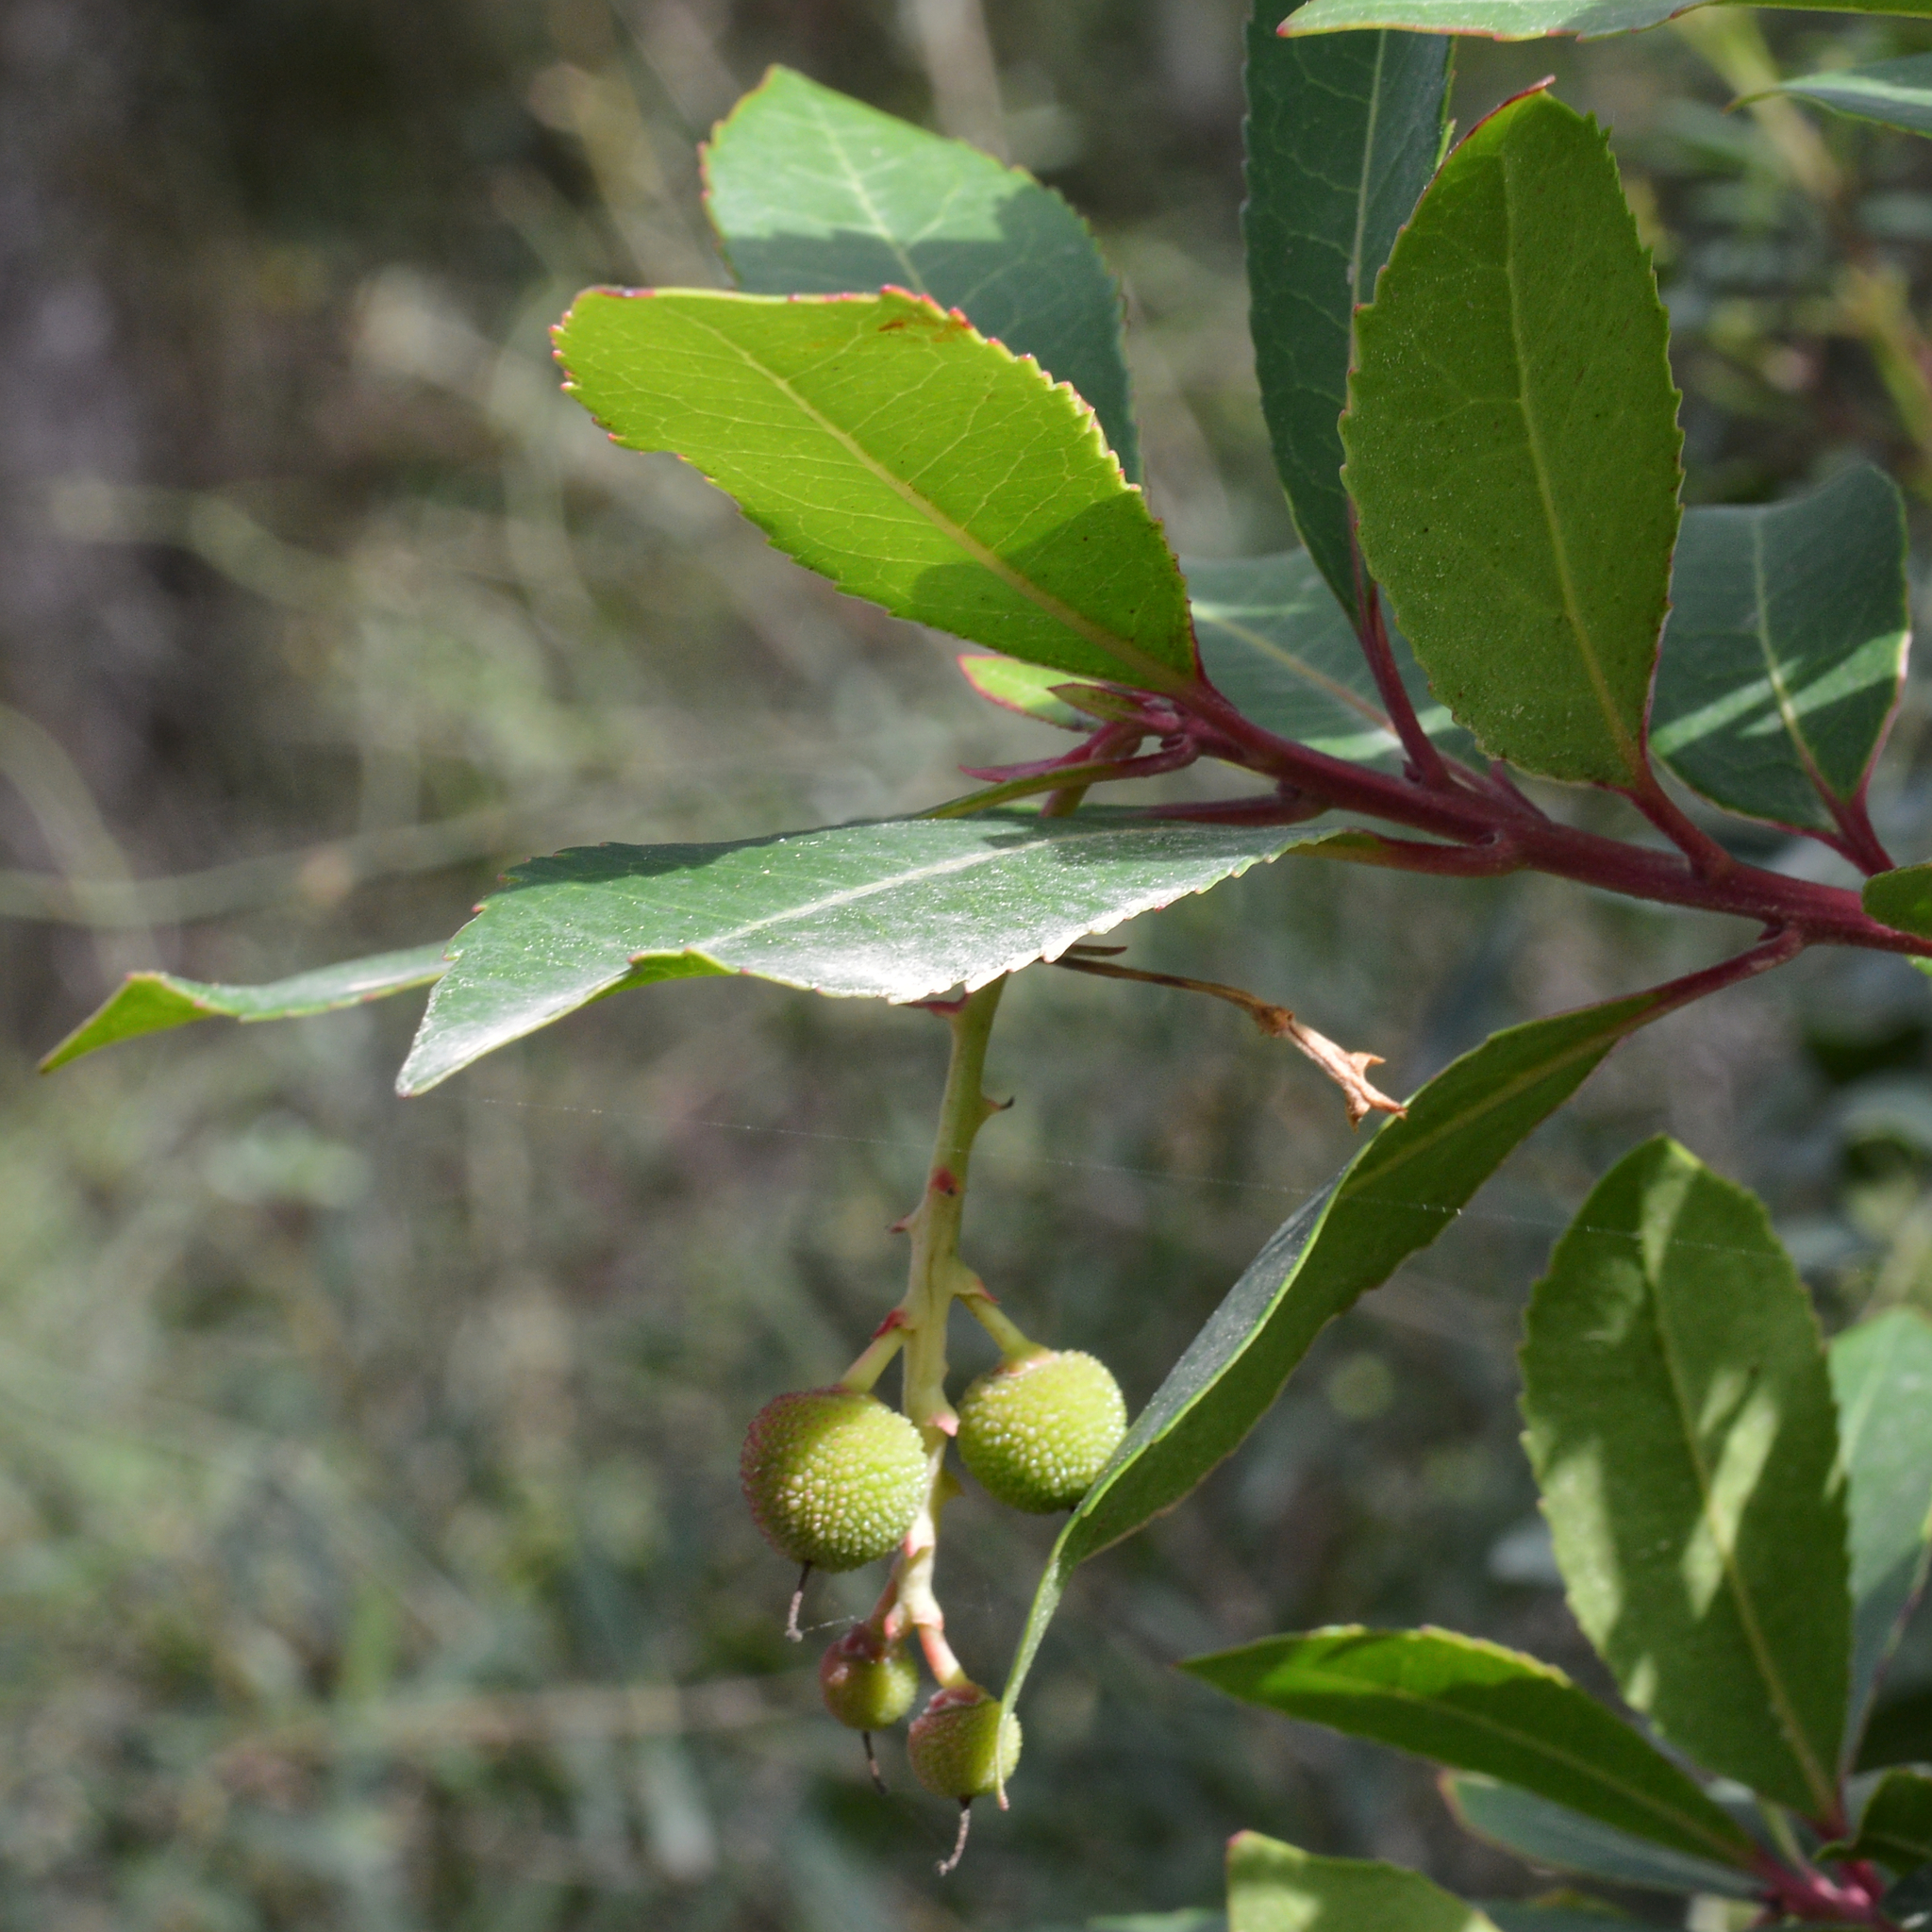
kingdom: Plantae
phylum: Tracheophyta
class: Magnoliopsida
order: Ericales
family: Ericaceae
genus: Arbutus
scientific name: Arbutus unedo
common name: Strawberry-tree
